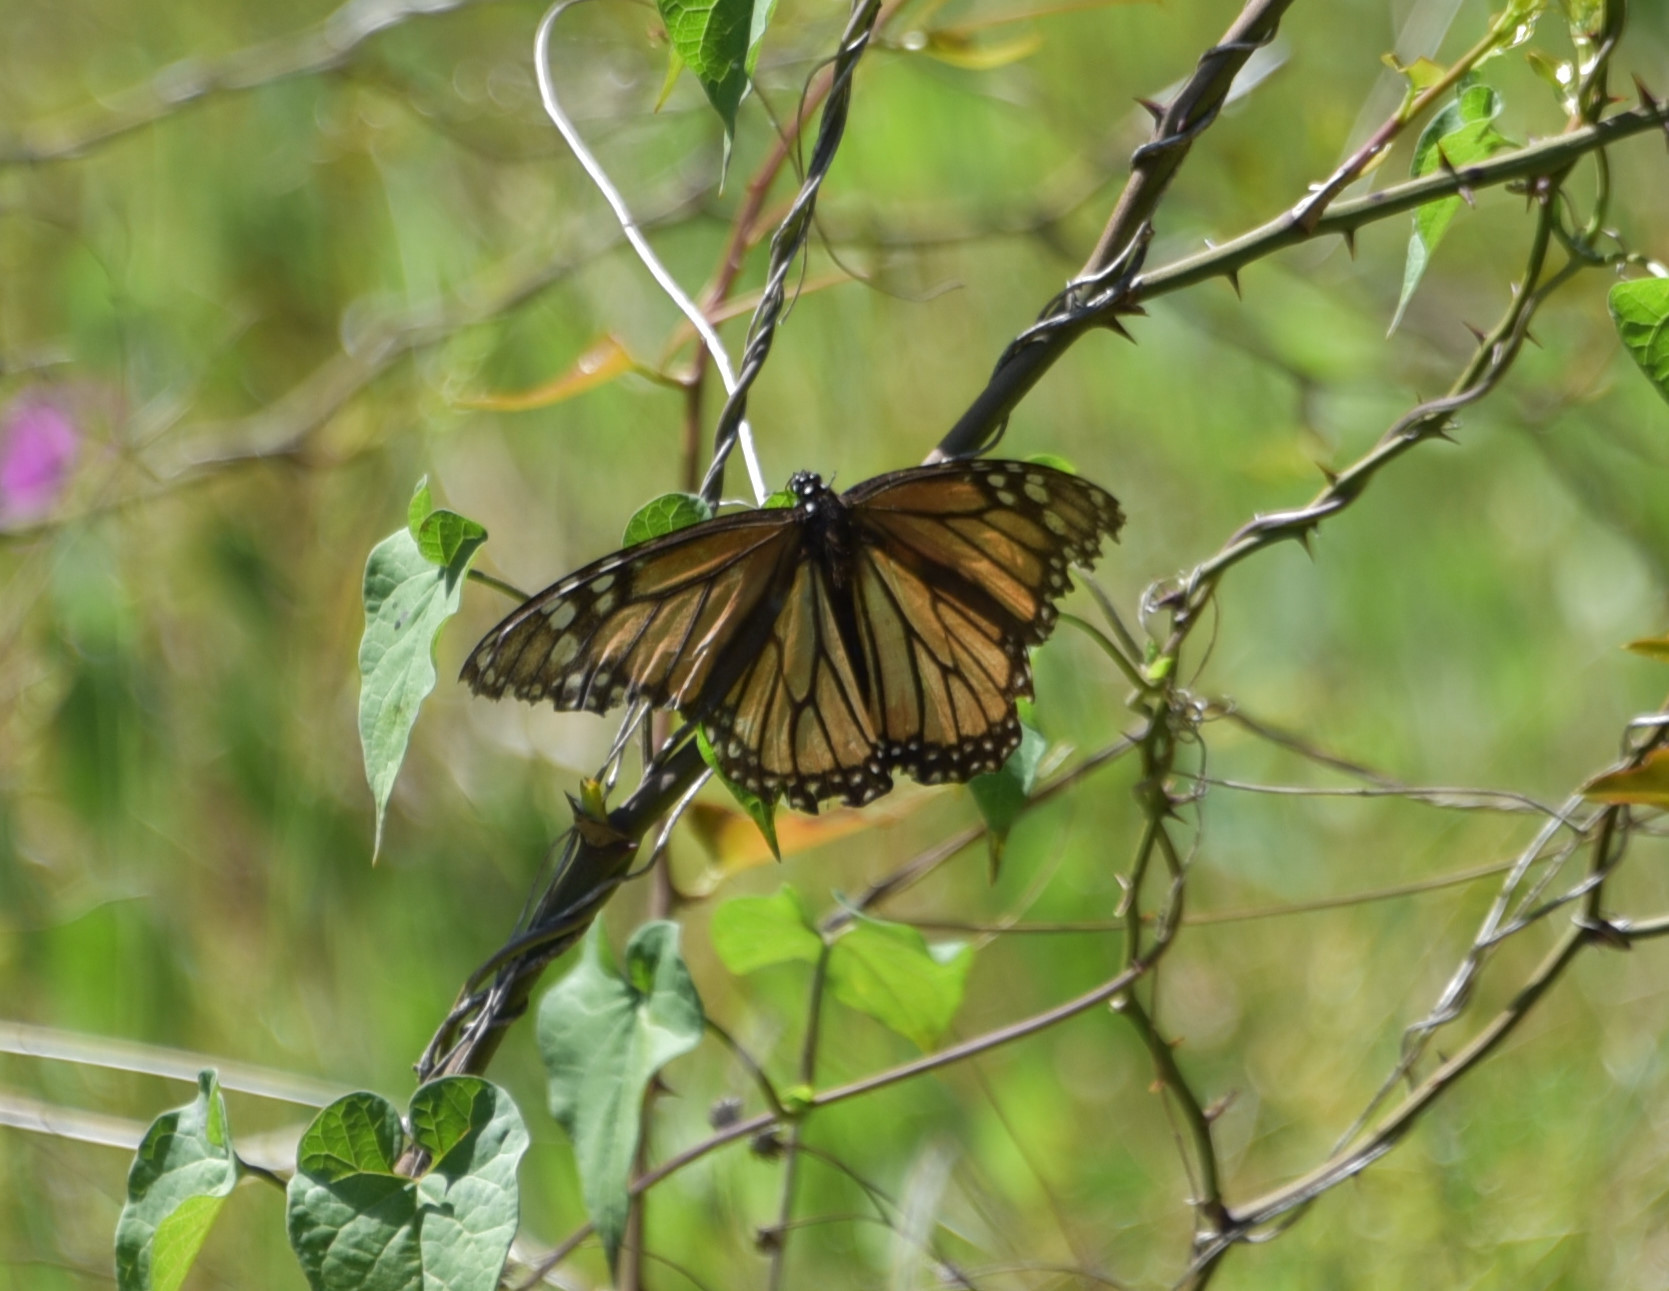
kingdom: Animalia
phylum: Arthropoda
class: Insecta
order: Lepidoptera
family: Nymphalidae
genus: Danaus
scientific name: Danaus plexippus
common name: Monarch
